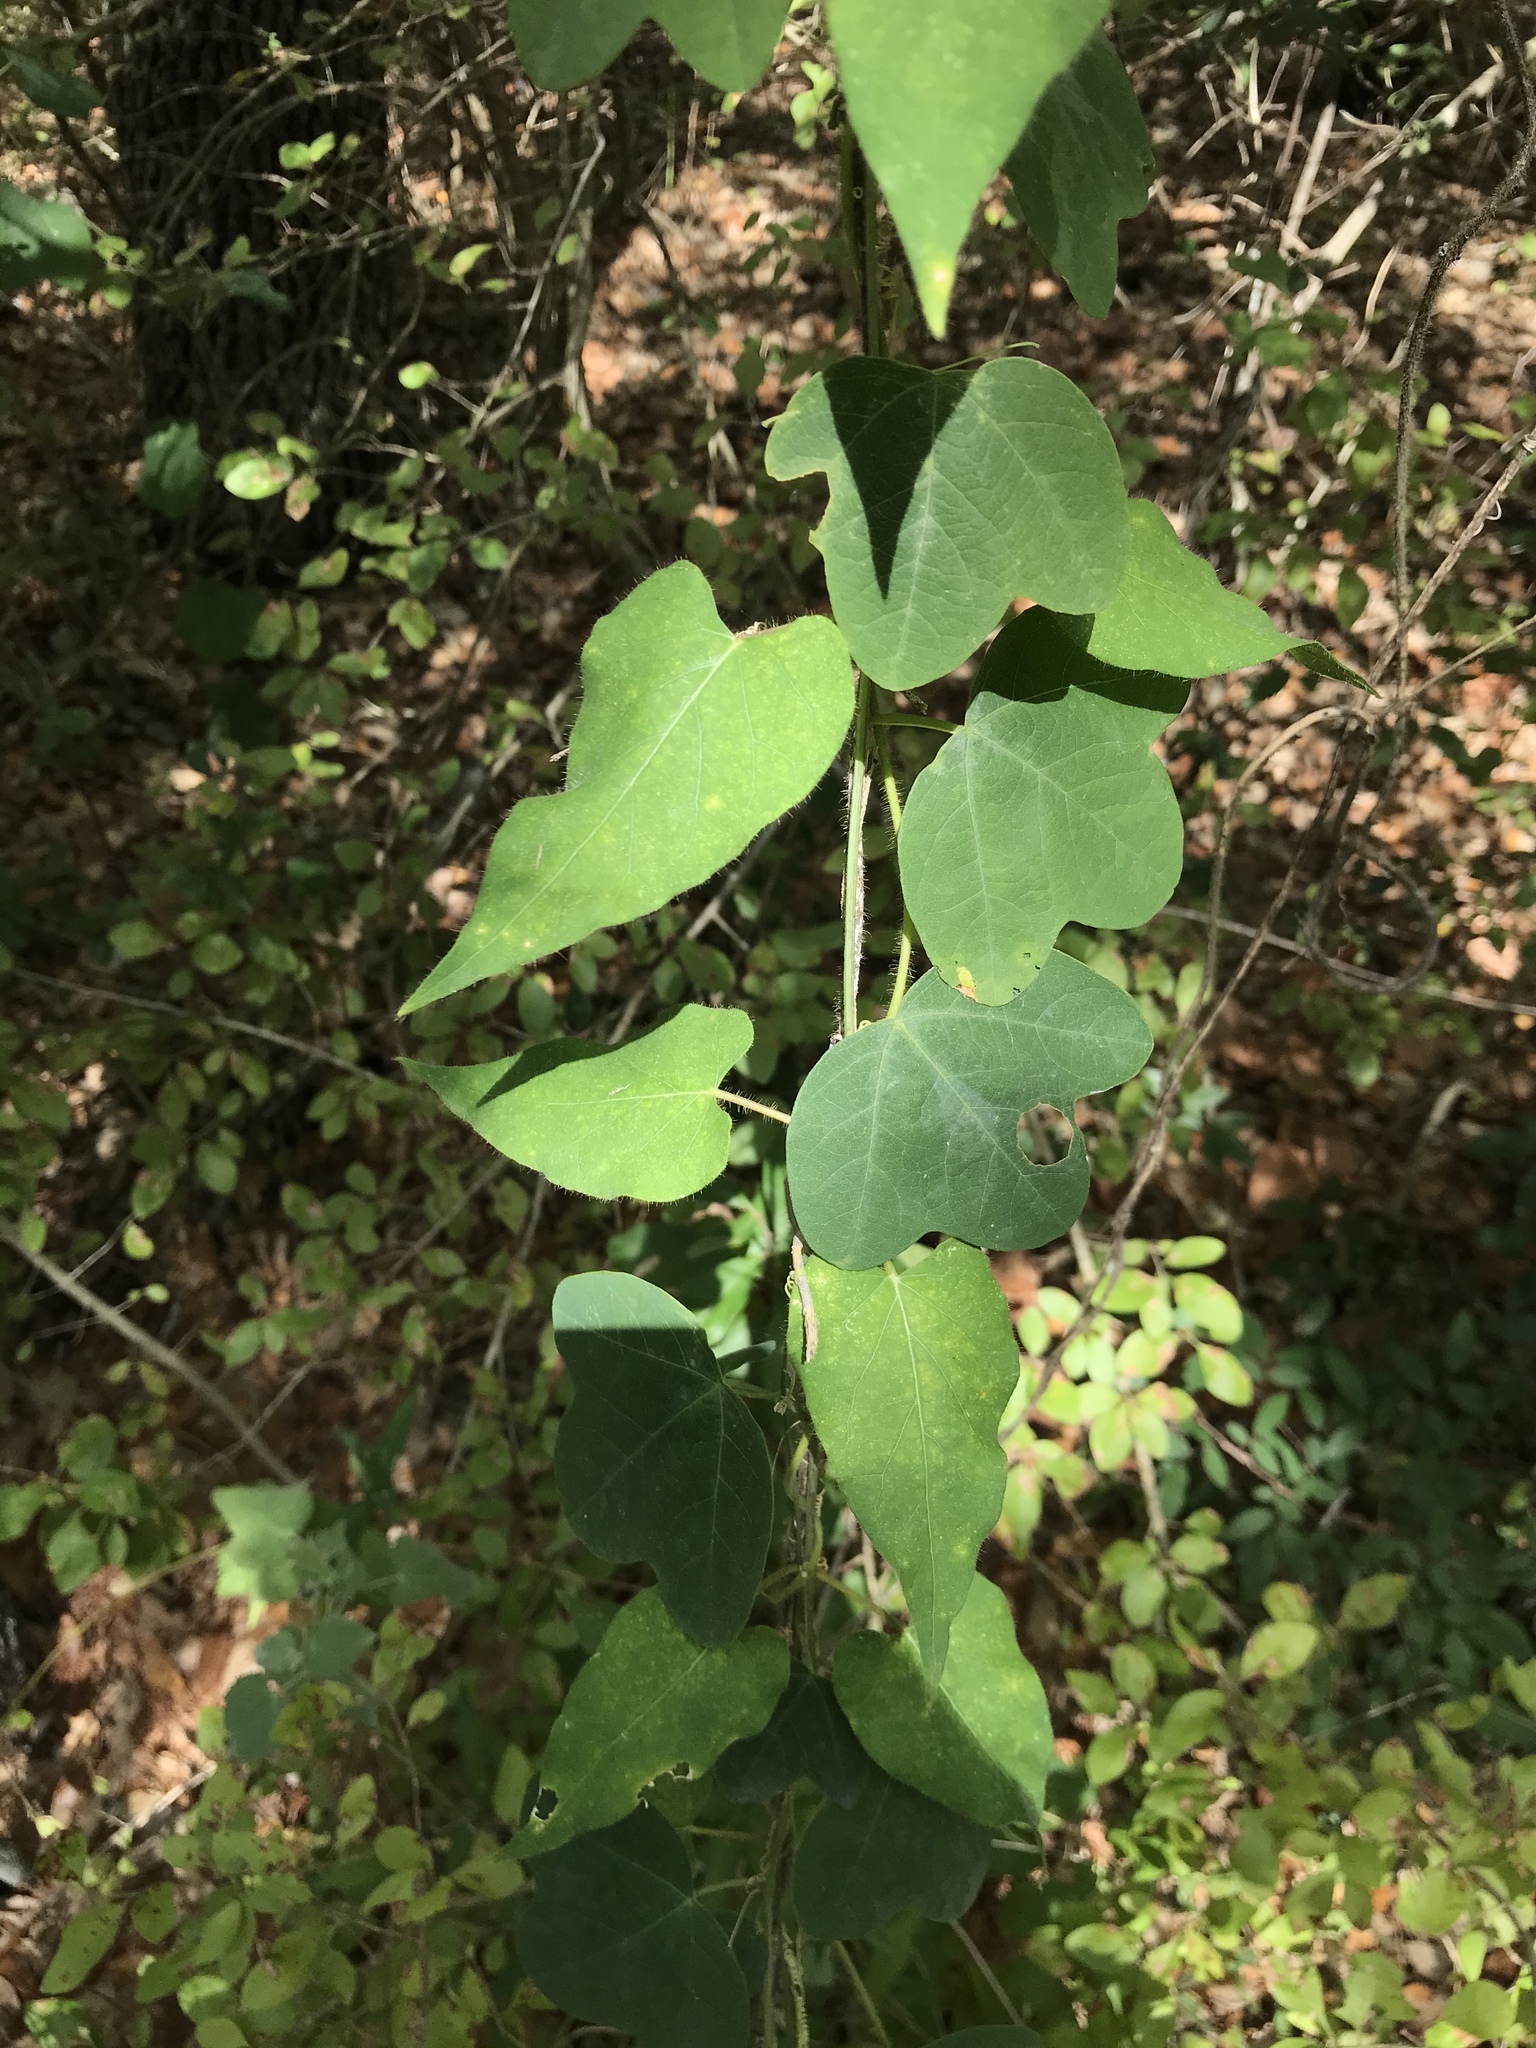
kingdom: Plantae
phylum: Tracheophyta
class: Magnoliopsida
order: Gentianales
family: Apocynaceae
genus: Dictyanthus
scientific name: Dictyanthus reticulatus
